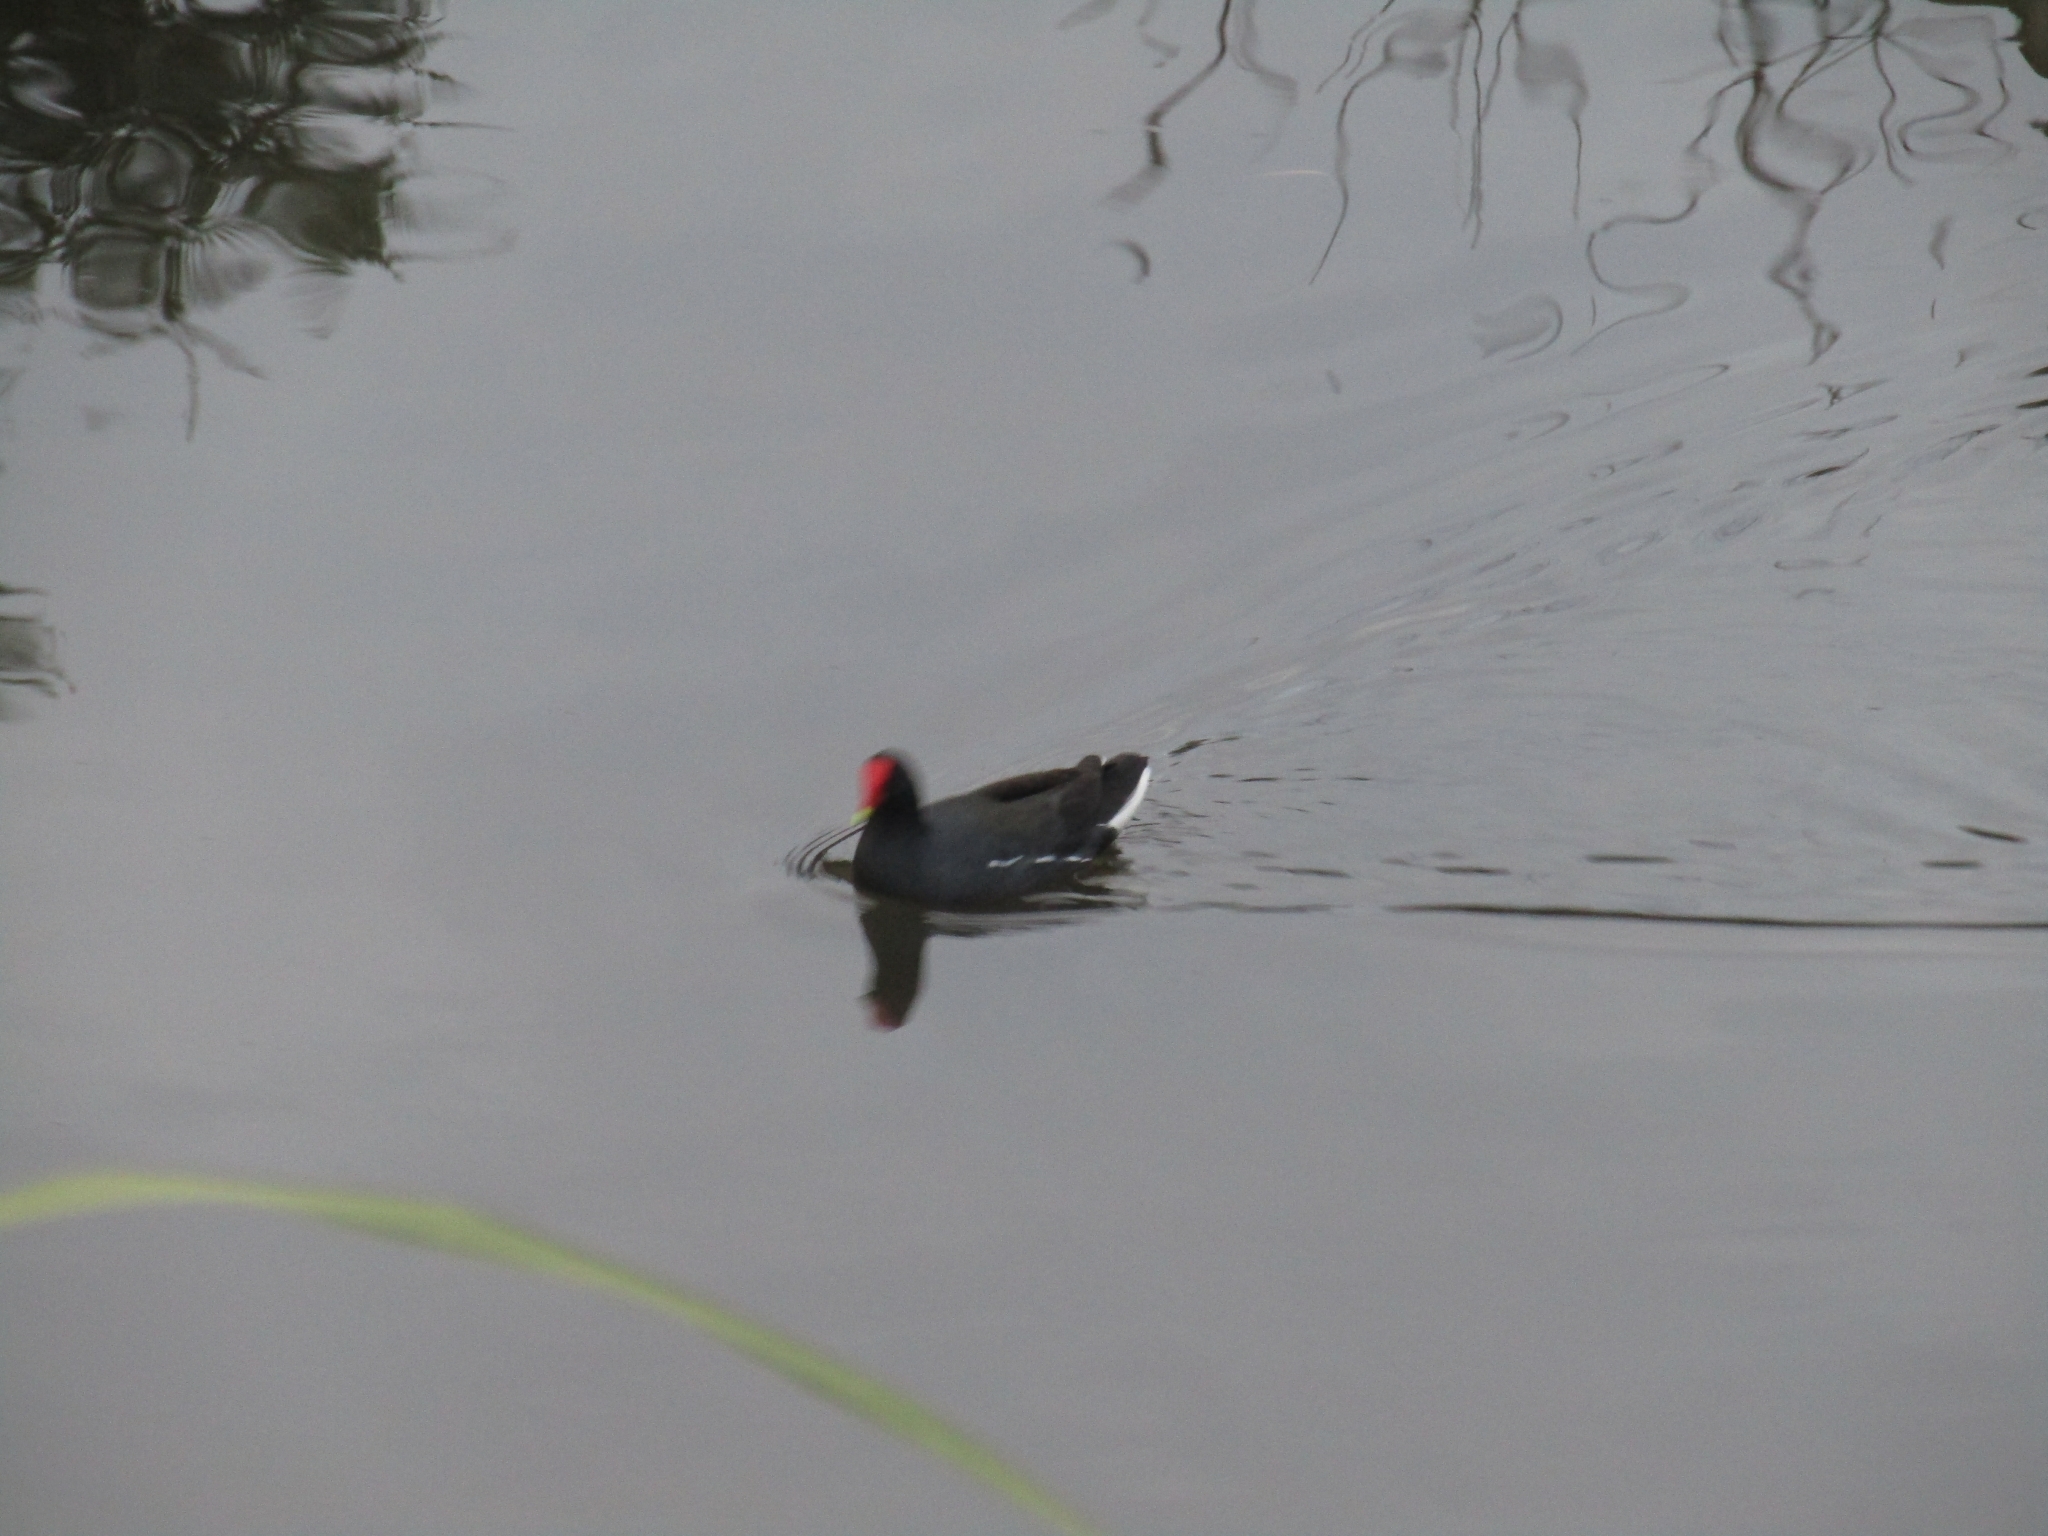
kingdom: Animalia
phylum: Chordata
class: Aves
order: Gruiformes
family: Rallidae
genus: Gallinula
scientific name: Gallinula chloropus
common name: Common moorhen
